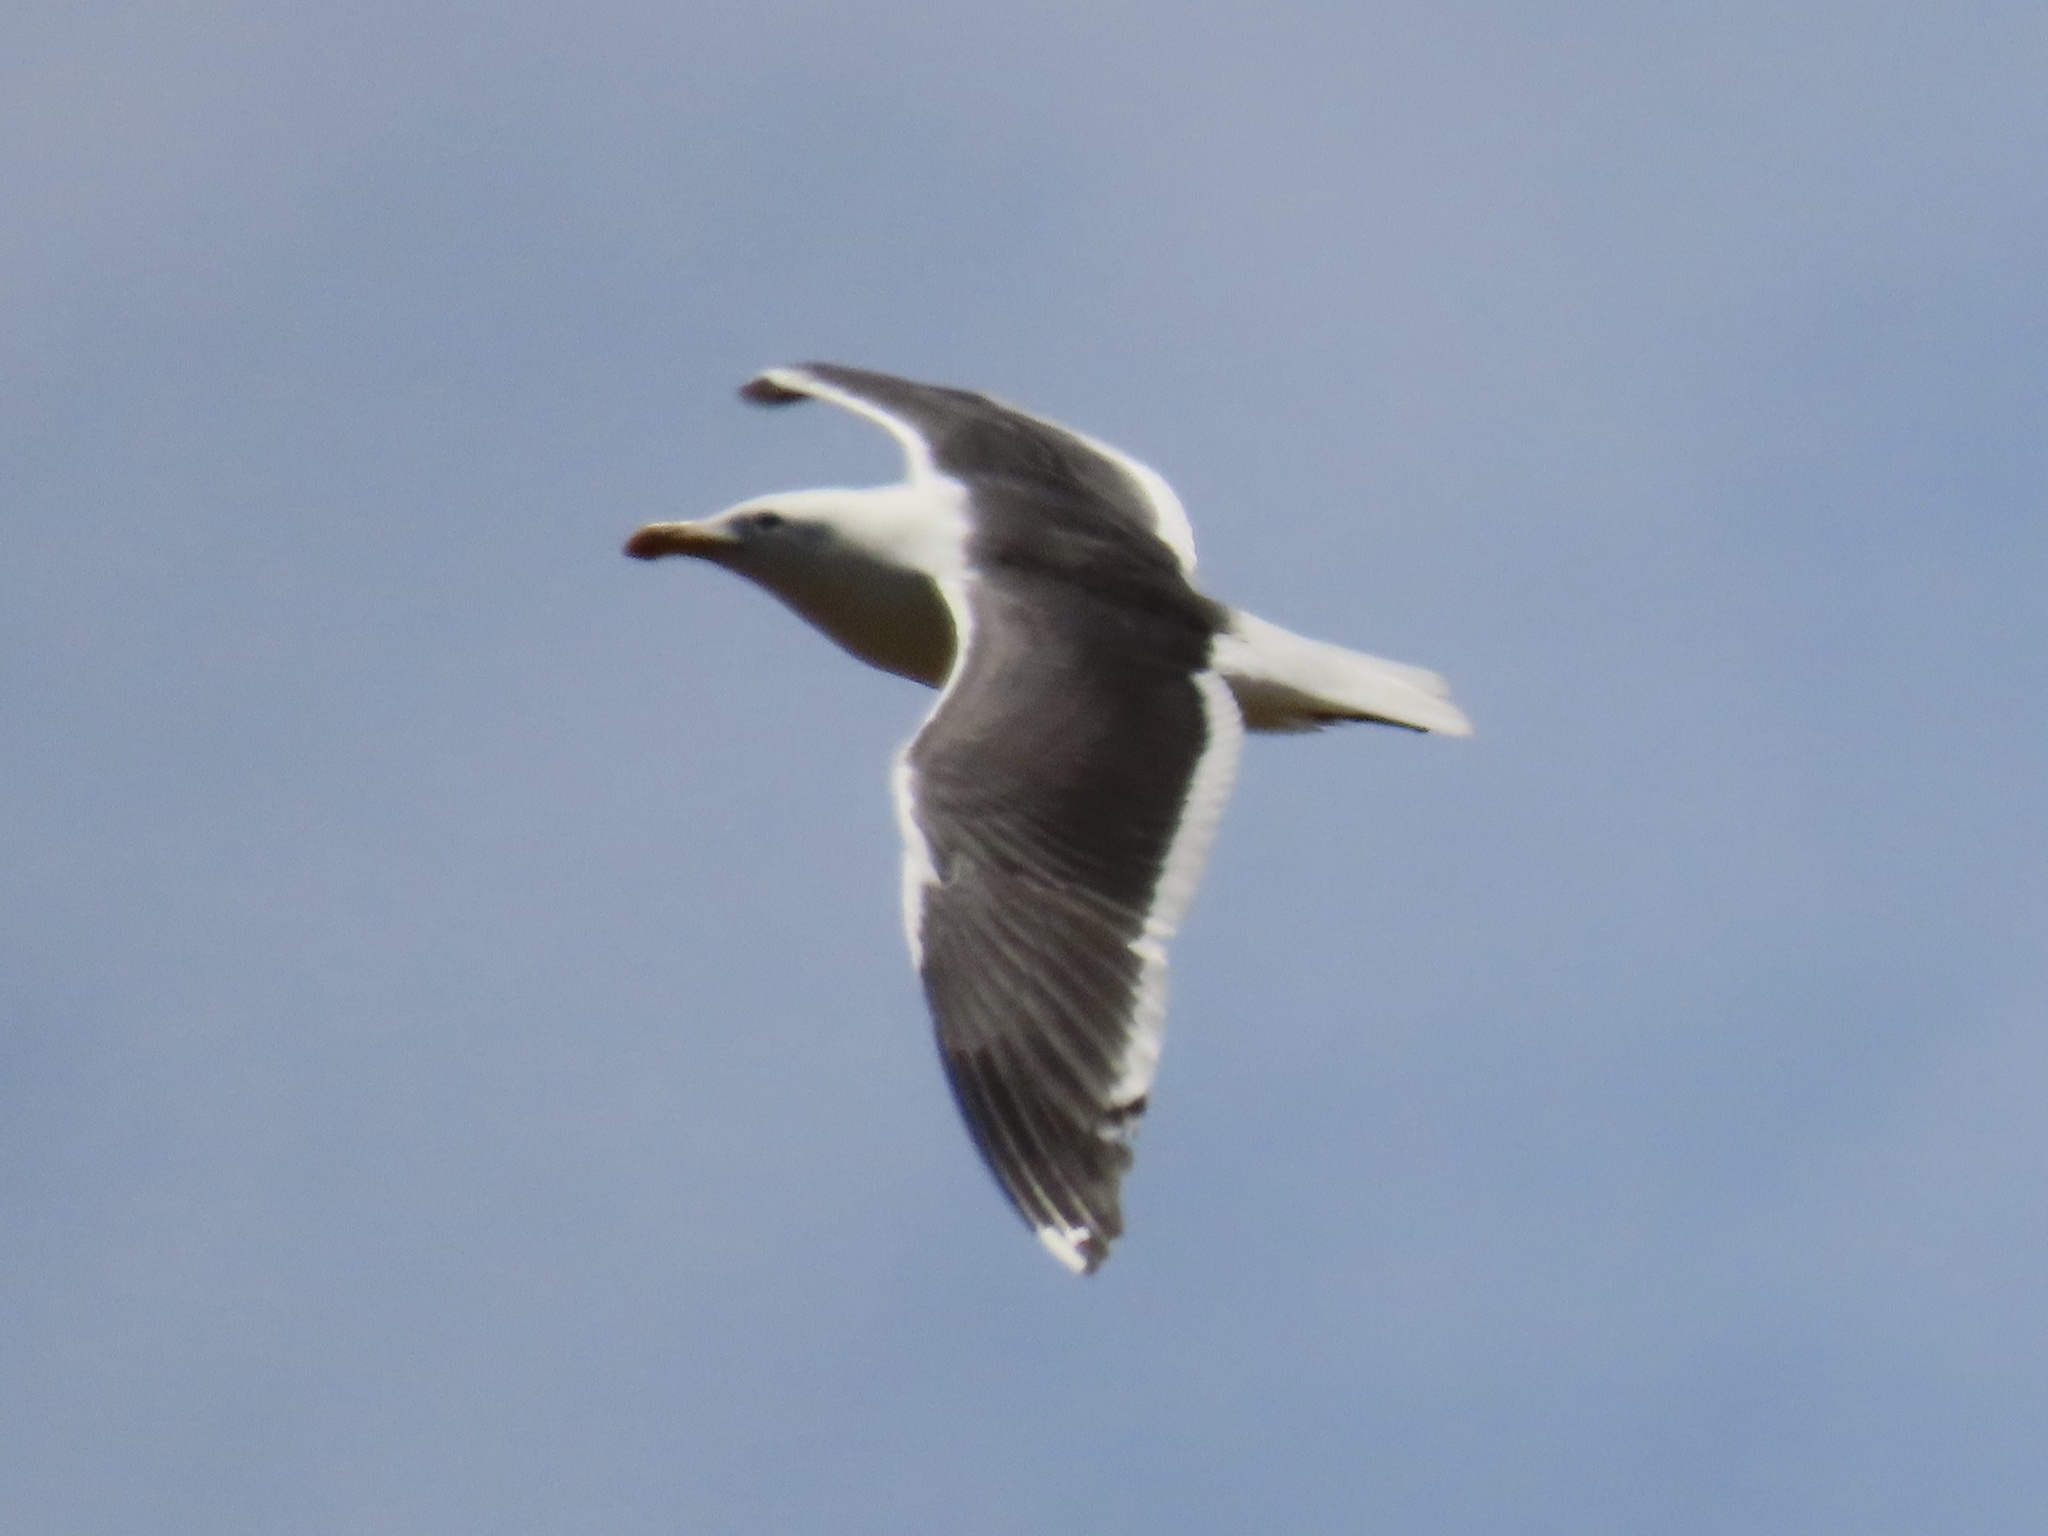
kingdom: Animalia
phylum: Chordata
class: Aves
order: Charadriiformes
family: Laridae
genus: Larus
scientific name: Larus occidentalis
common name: Western gull
